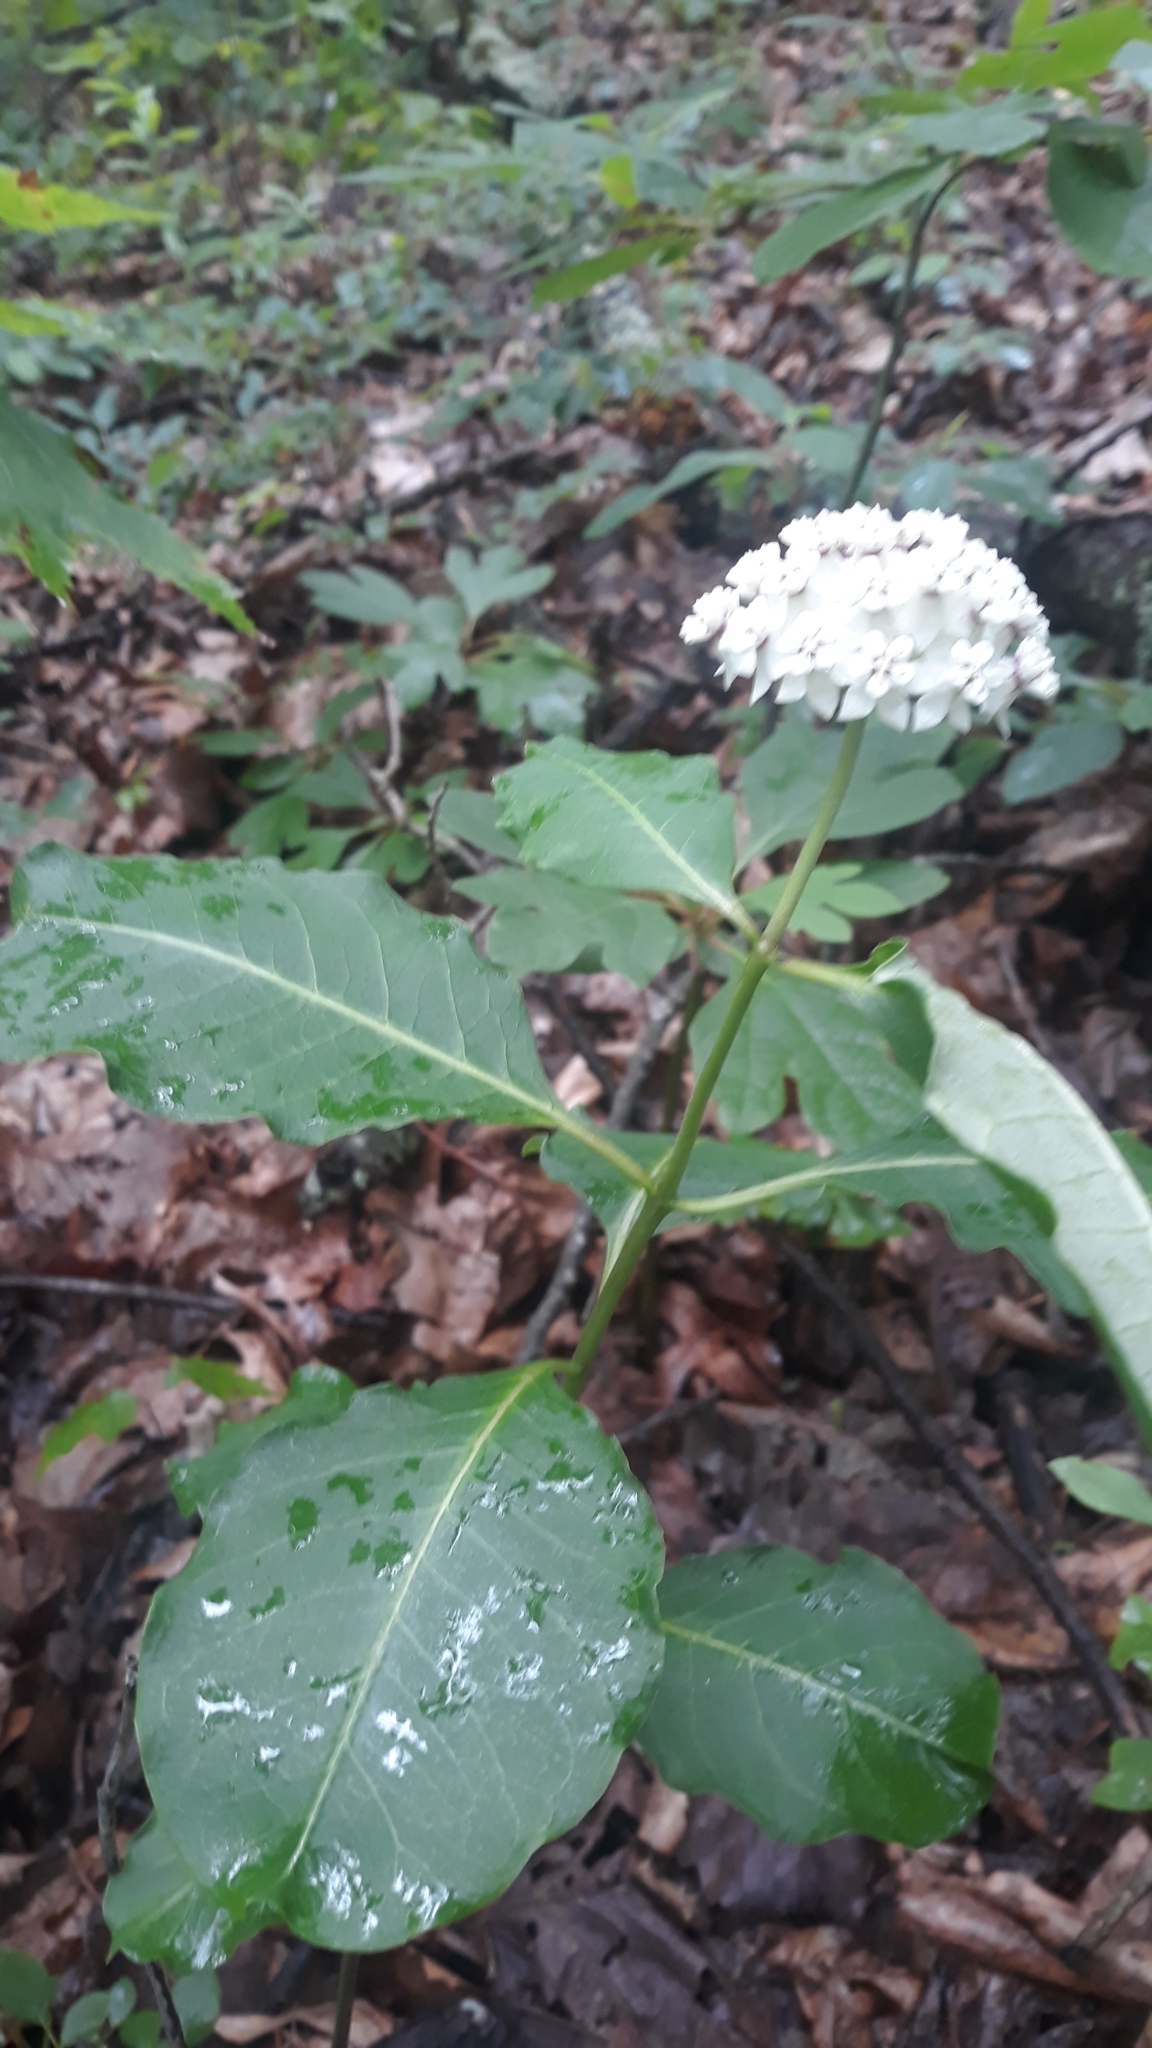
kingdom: Plantae
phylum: Tracheophyta
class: Magnoliopsida
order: Gentianales
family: Apocynaceae
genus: Asclepias
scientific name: Asclepias variegata
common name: Variegated milkweed
